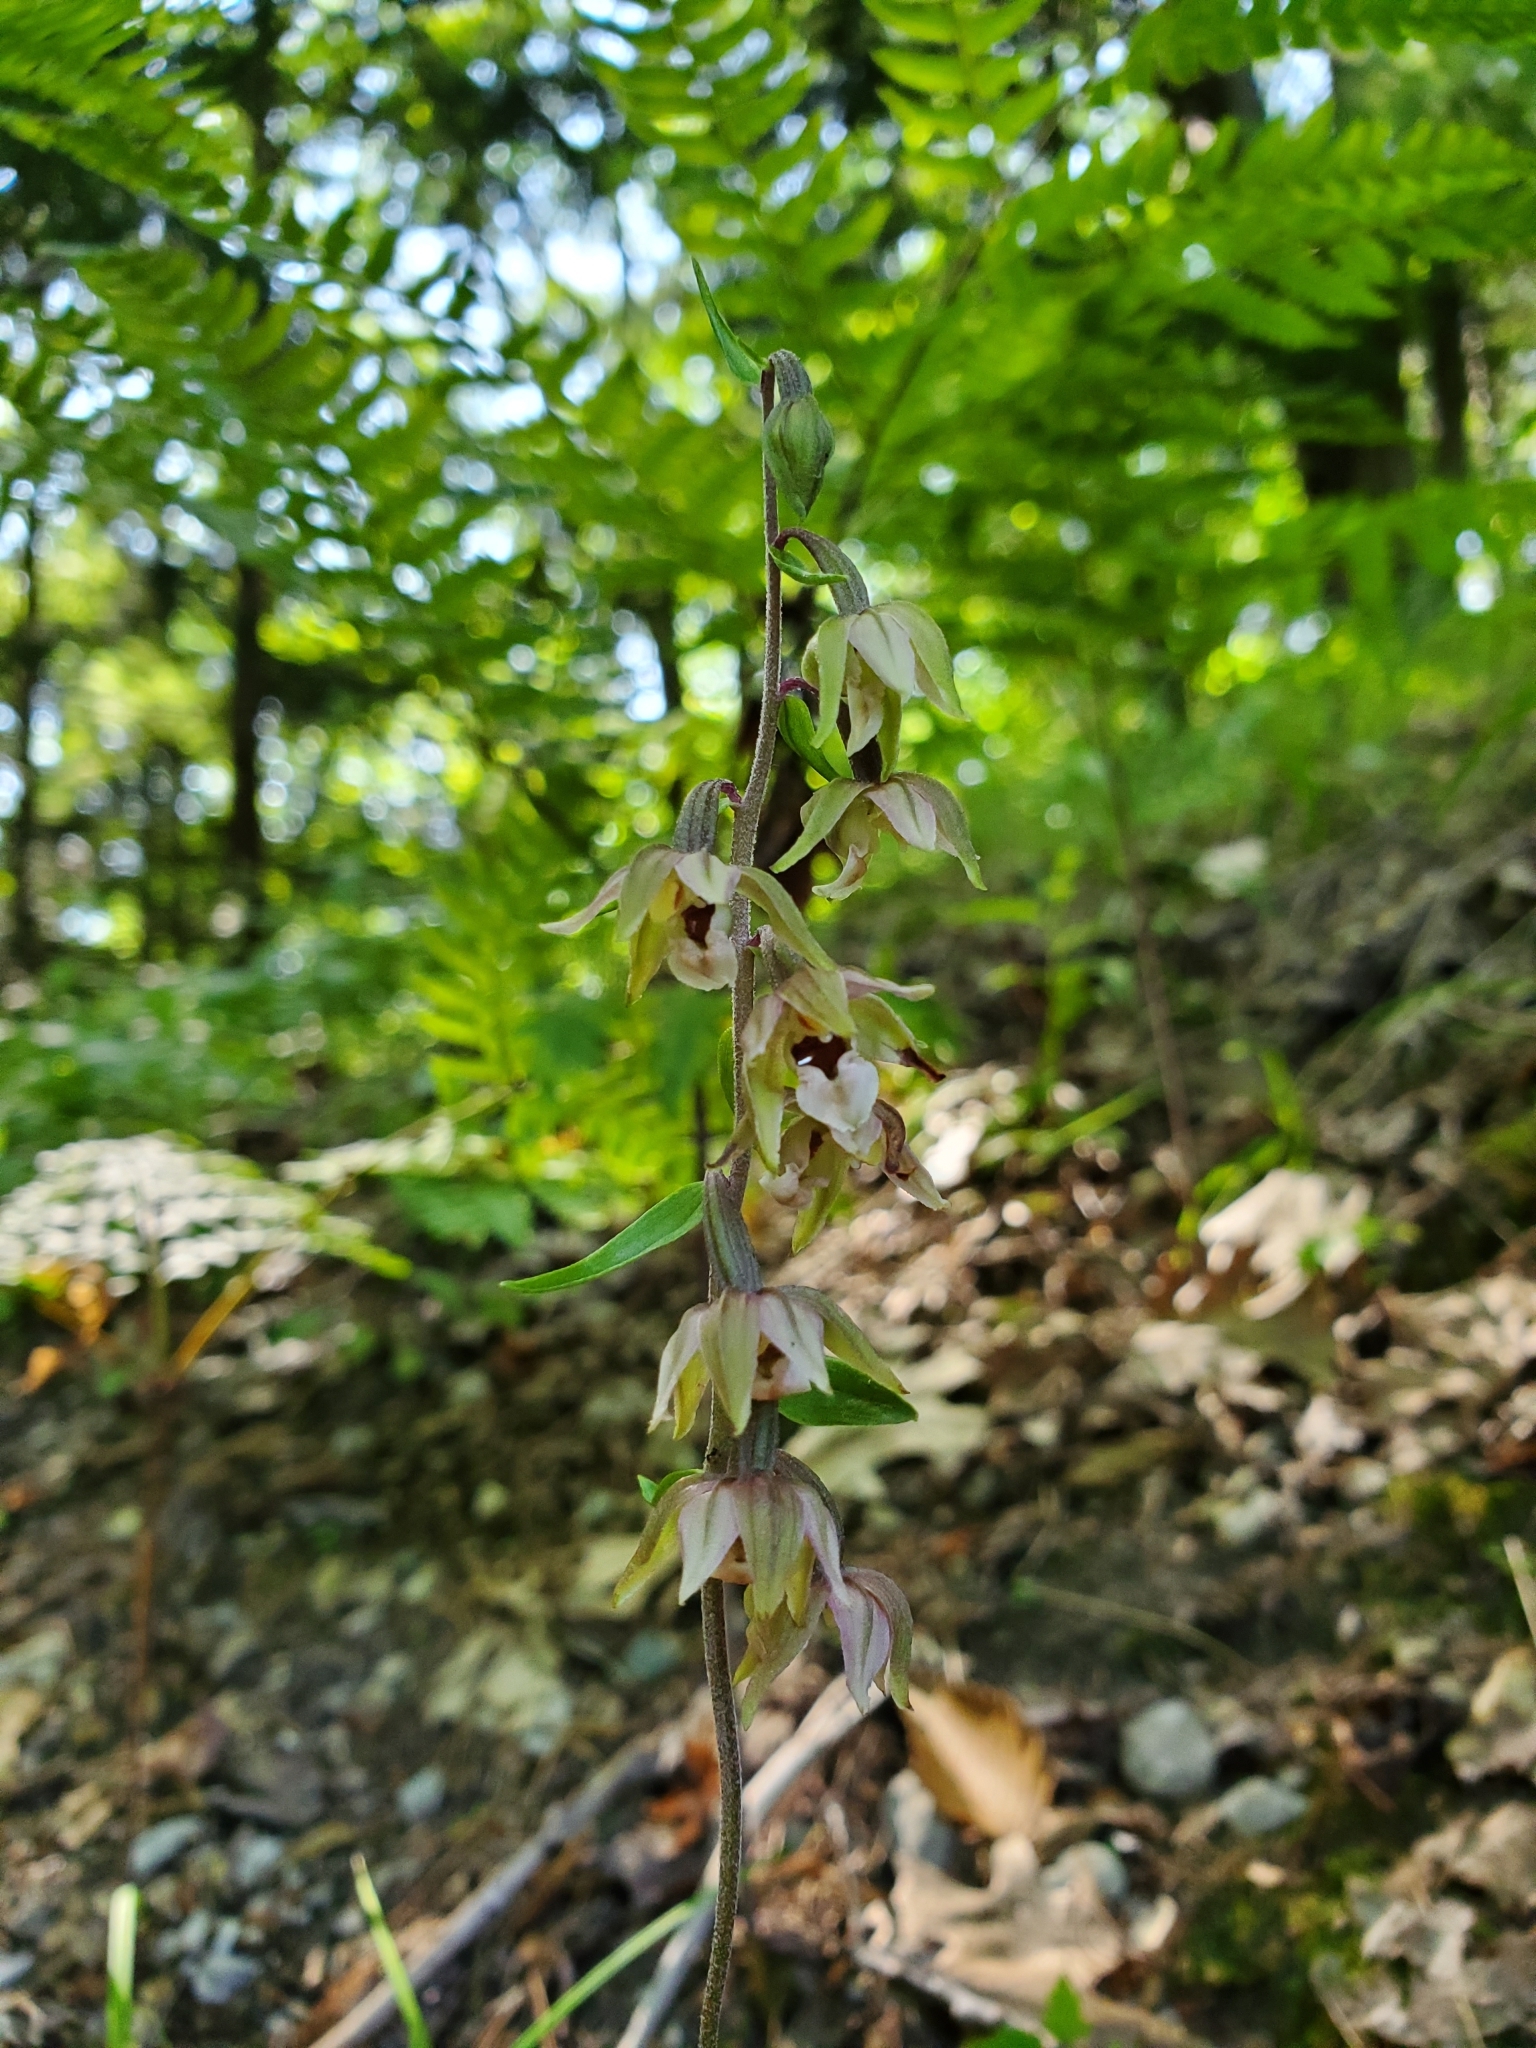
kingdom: Plantae
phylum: Tracheophyta
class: Liliopsida
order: Asparagales
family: Orchidaceae
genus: Epipactis
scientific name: Epipactis helleborine
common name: Broad-leaved helleborine
